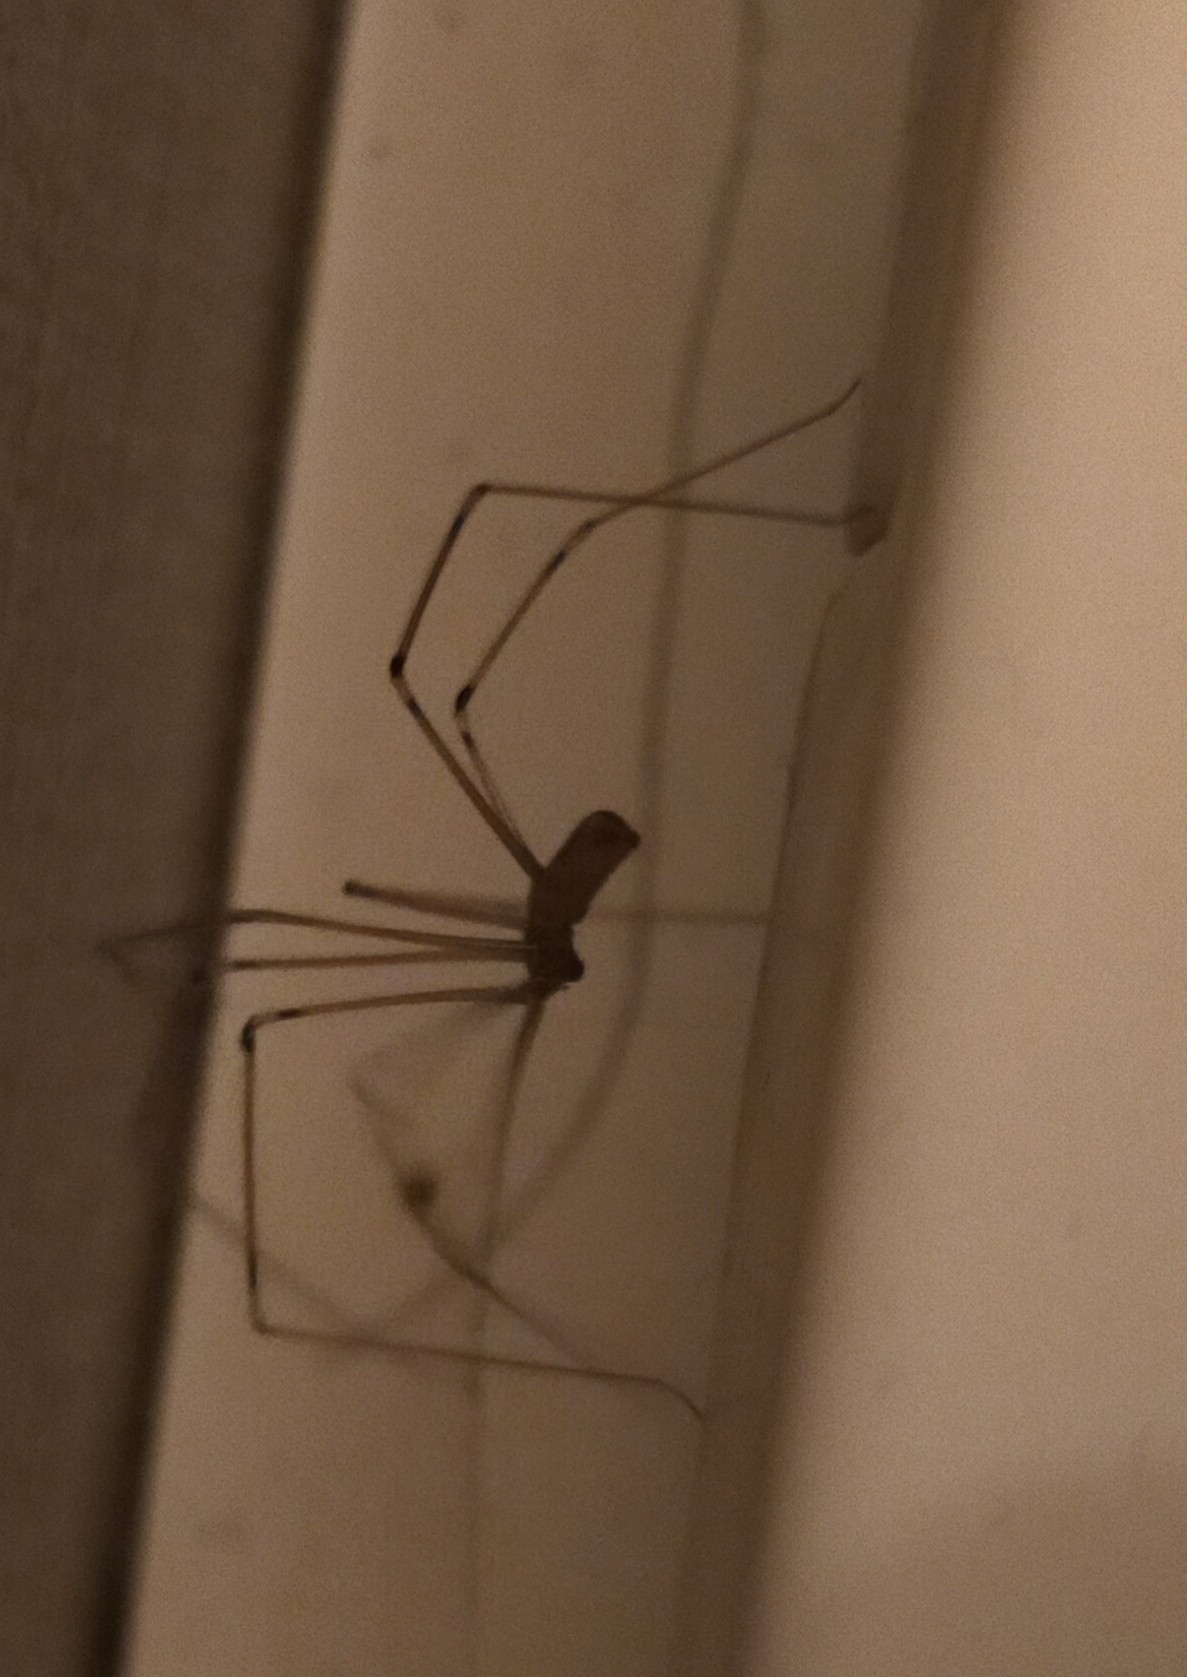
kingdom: Animalia
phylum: Arthropoda
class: Arachnida
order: Araneae
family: Pholcidae
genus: Holocnemus
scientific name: Holocnemus pluchei
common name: Marbled cellar spider
